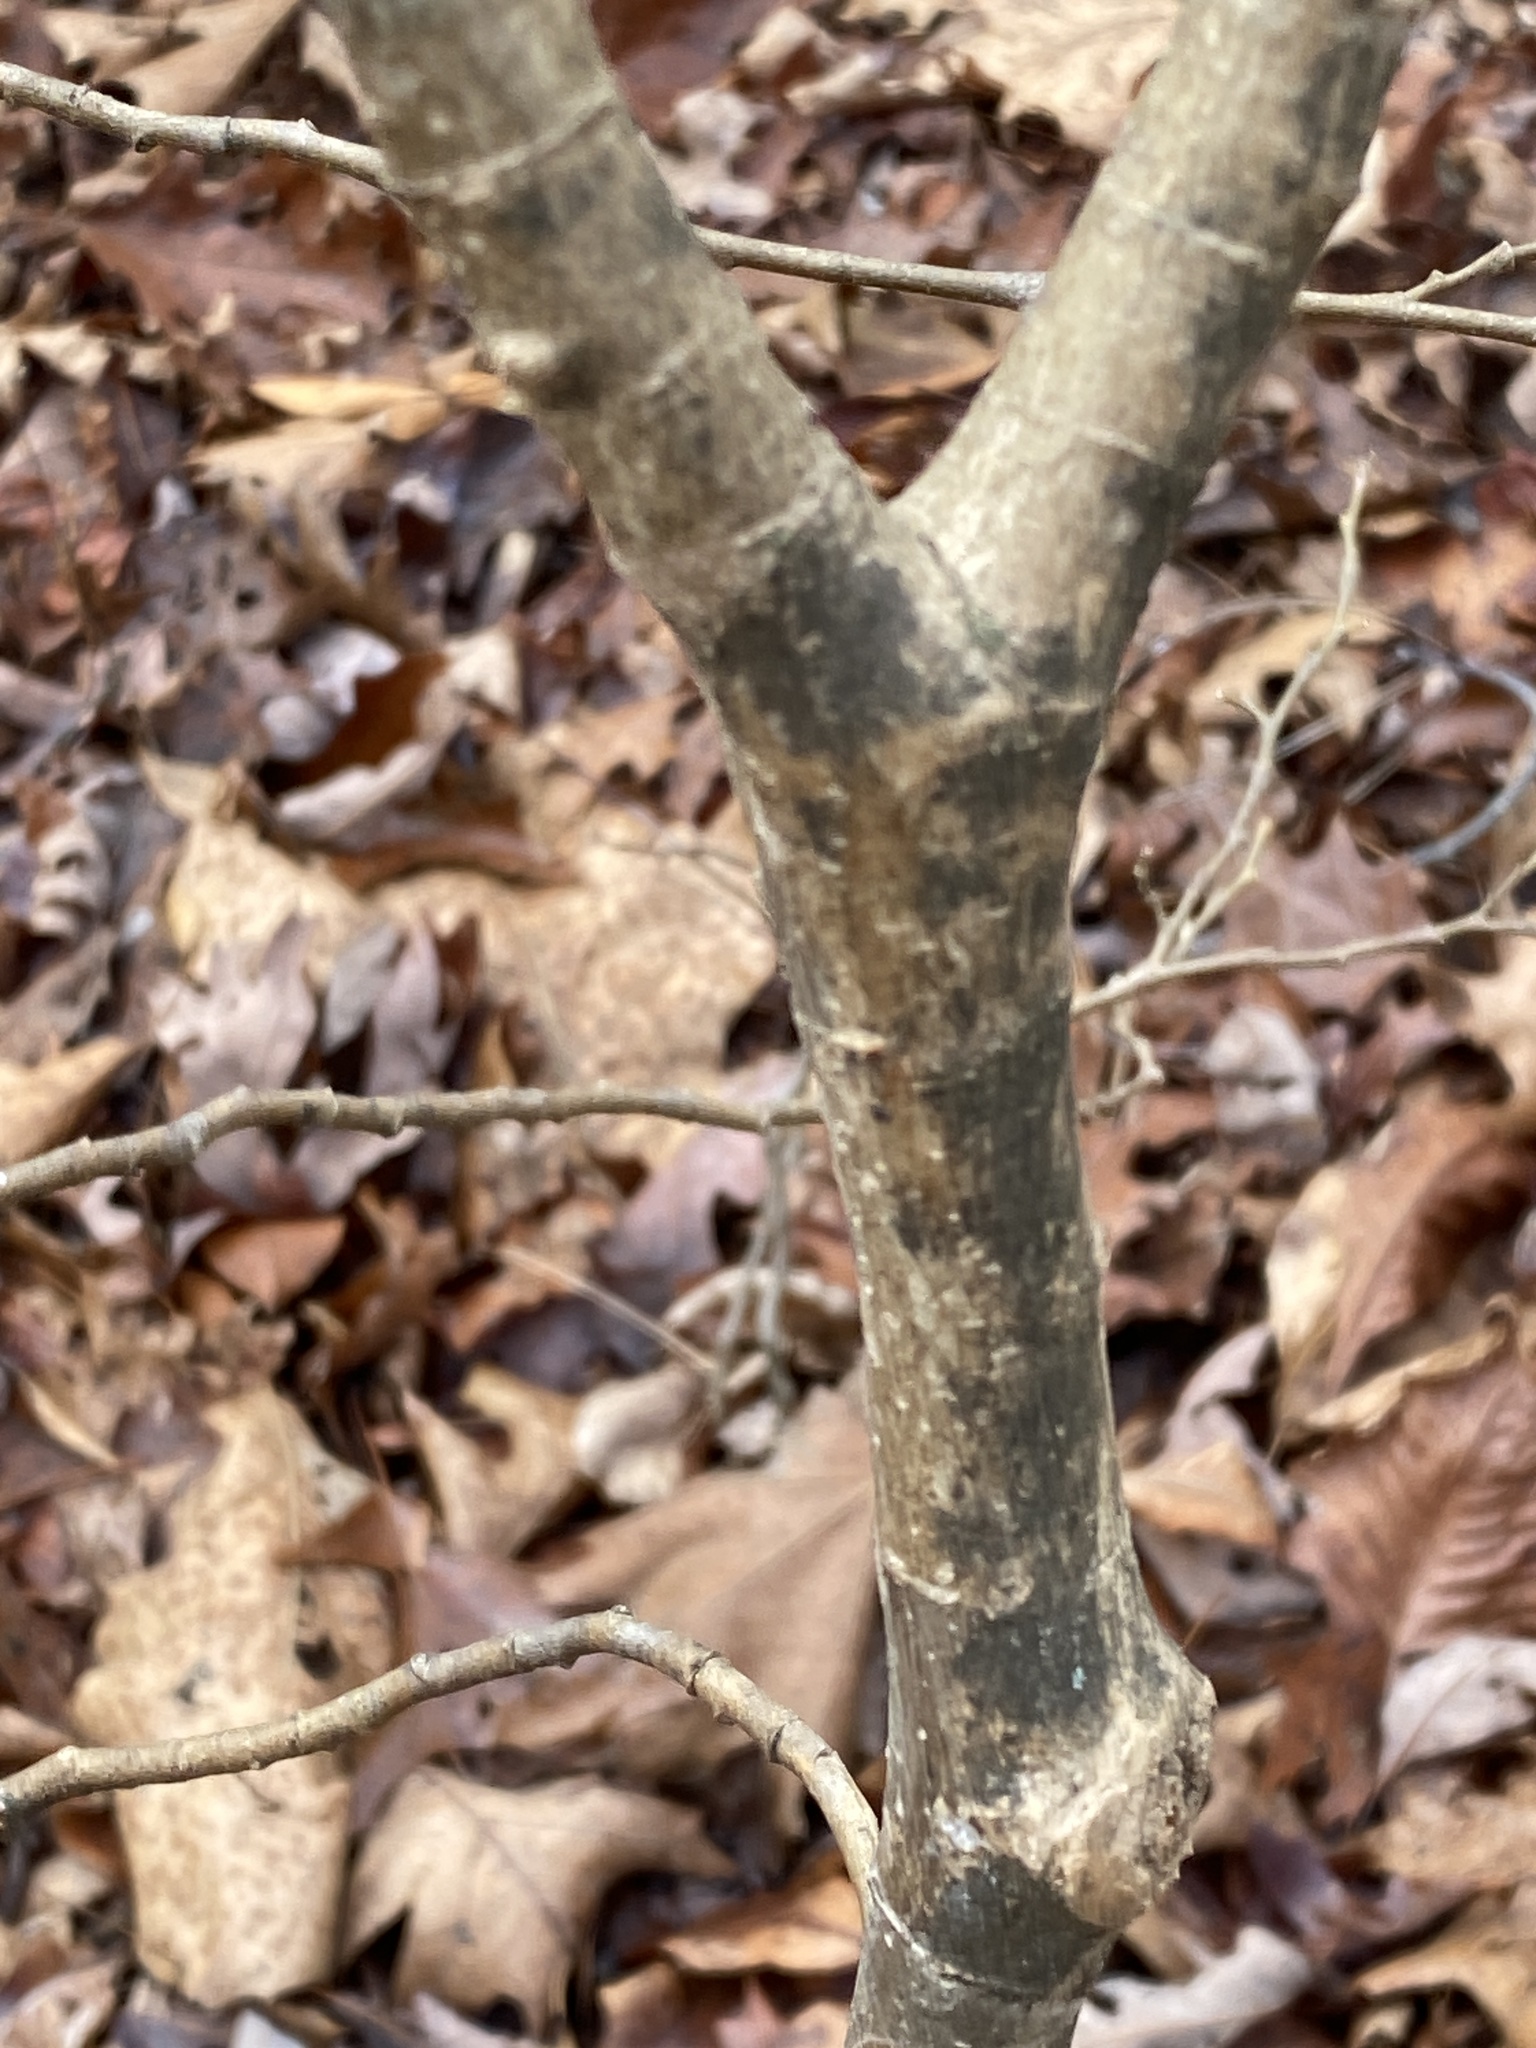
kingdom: Plantae
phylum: Tracheophyta
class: Magnoliopsida
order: Malvales
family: Thymelaeaceae
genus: Dirca
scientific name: Dirca palustris
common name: Leatherwood
